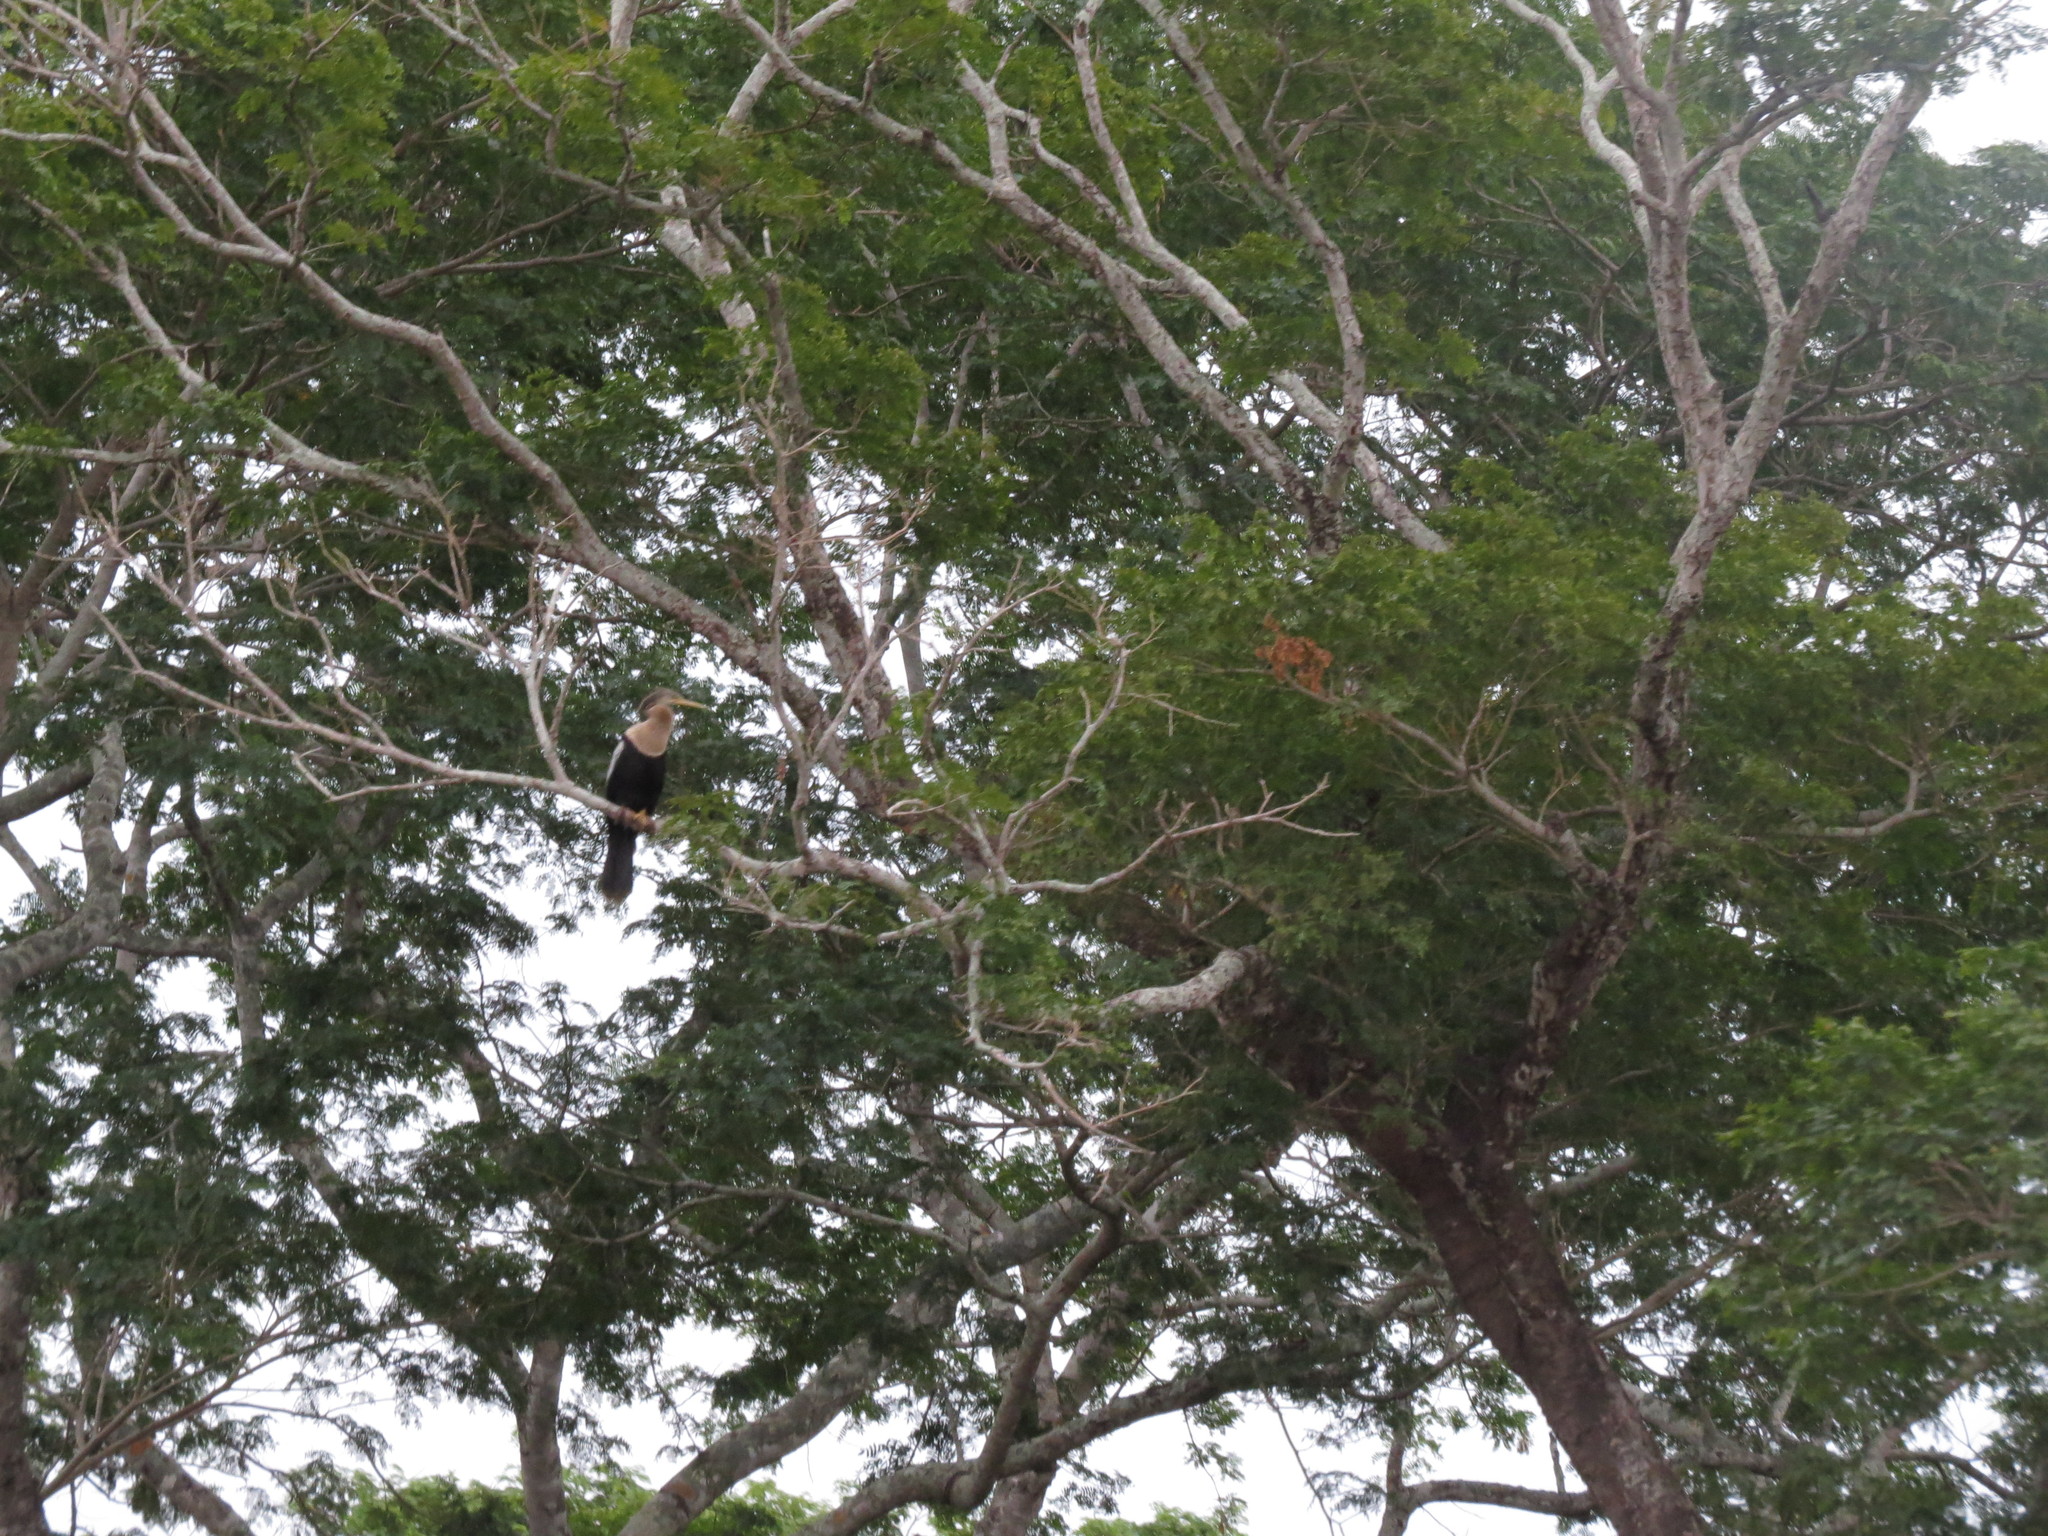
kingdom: Animalia
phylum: Chordata
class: Aves
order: Suliformes
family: Anhingidae
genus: Anhinga
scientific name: Anhinga anhinga
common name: Anhinga
